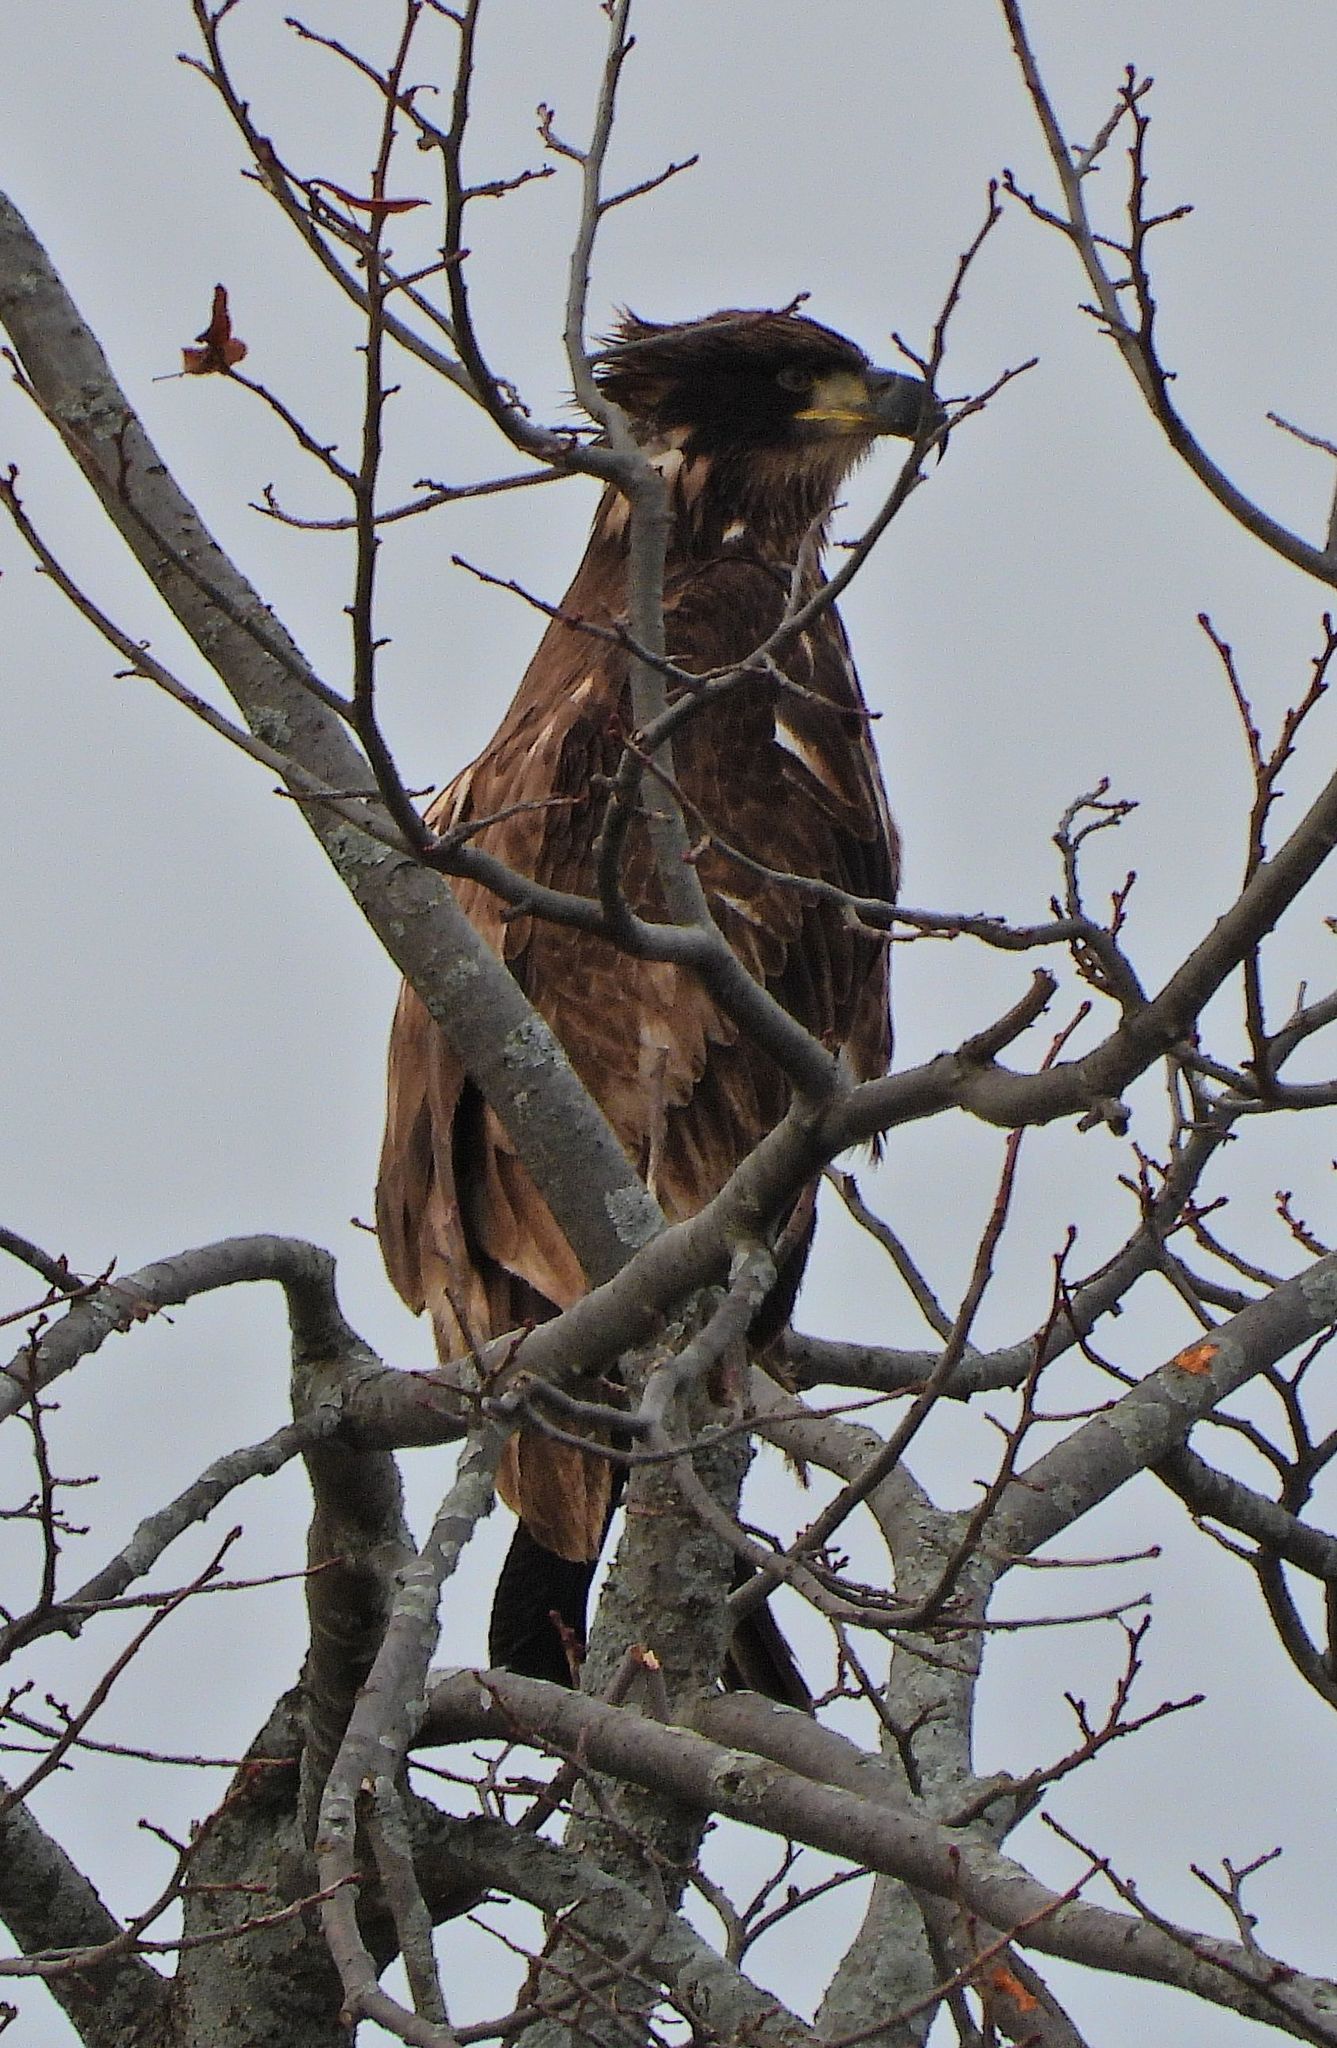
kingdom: Animalia
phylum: Chordata
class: Aves
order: Accipitriformes
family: Accipitridae
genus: Haliaeetus
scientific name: Haliaeetus leucocephalus
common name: Bald eagle
